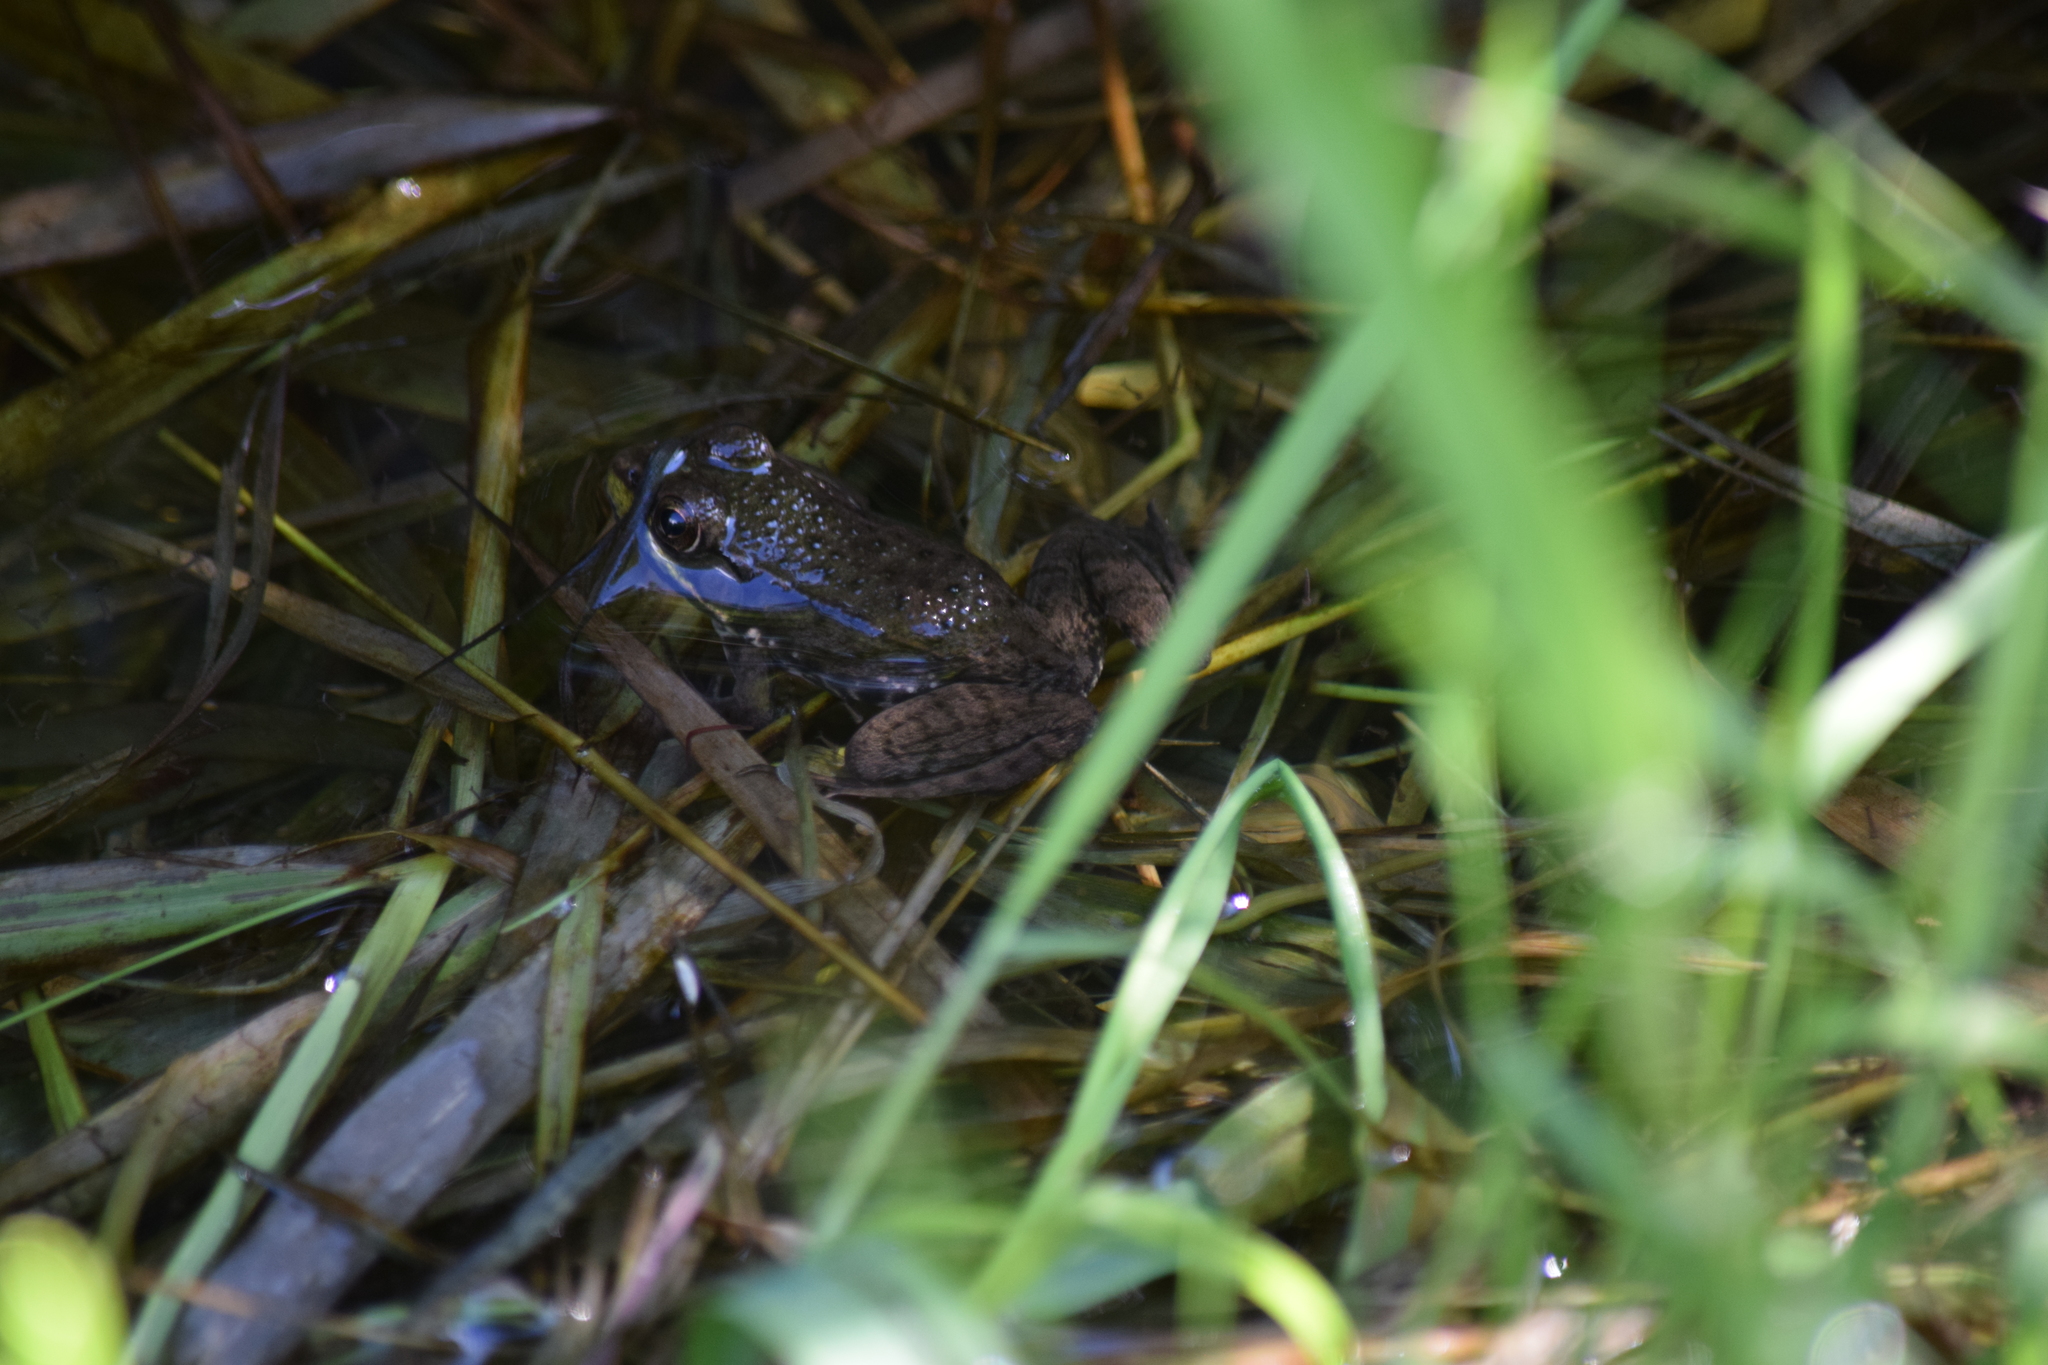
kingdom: Animalia
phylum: Chordata
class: Amphibia
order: Anura
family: Ranidae
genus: Lithobates
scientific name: Lithobates clamitans
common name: Green frog
